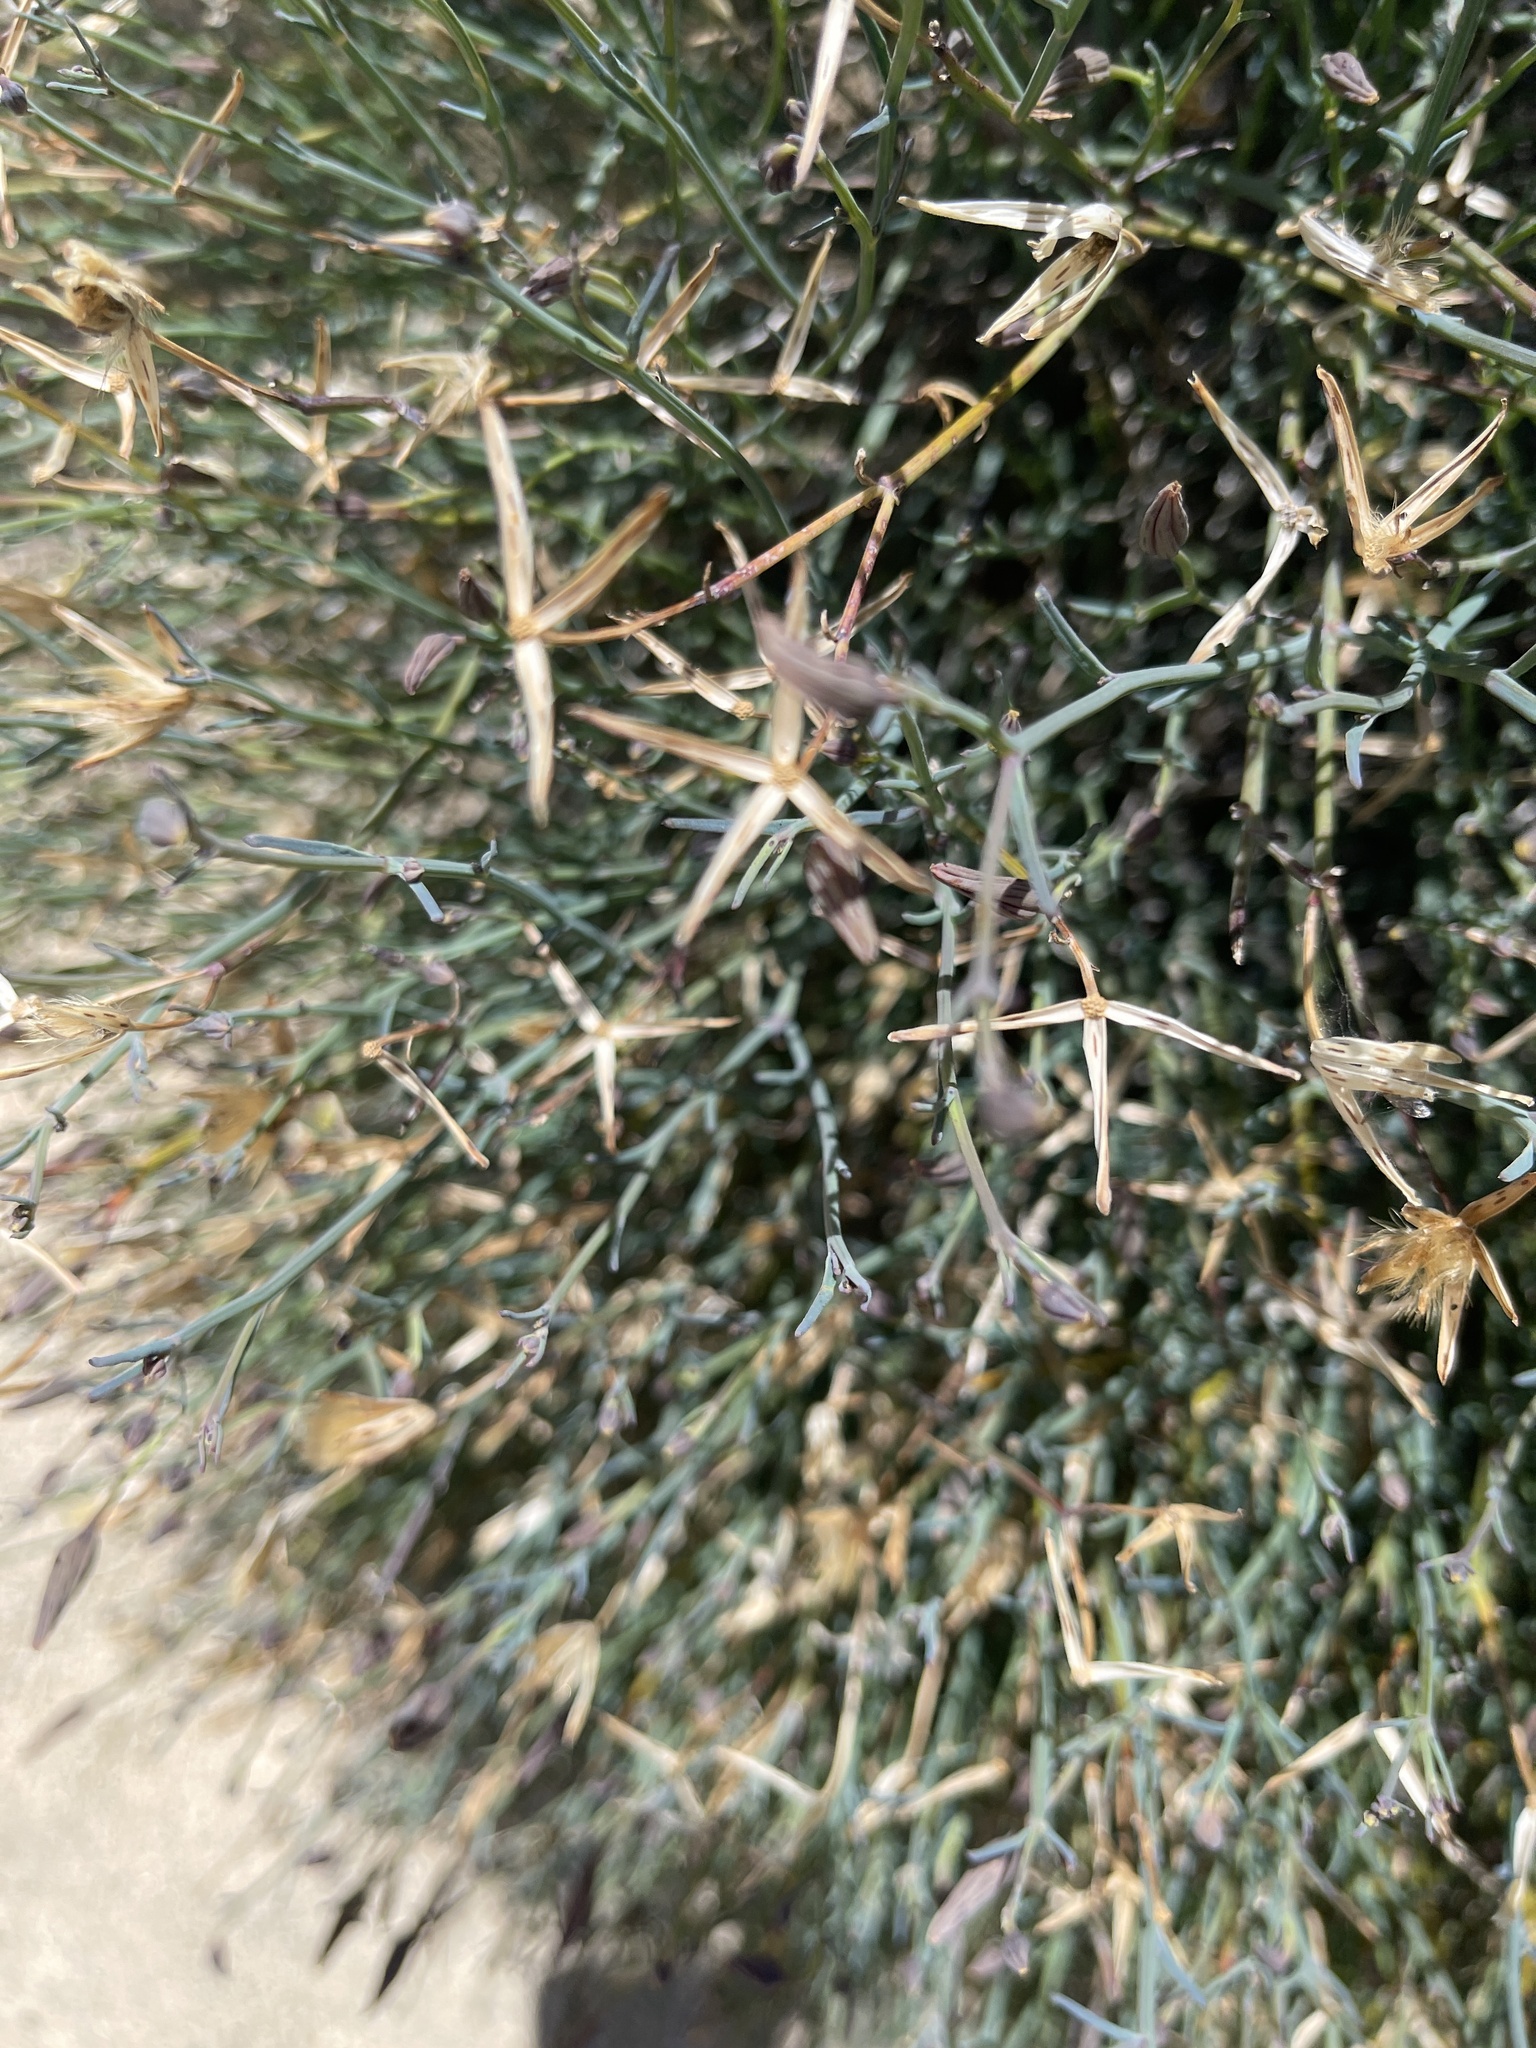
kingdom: Plantae
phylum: Tracheophyta
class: Magnoliopsida
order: Asterales
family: Asteraceae
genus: Porophyllum
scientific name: Porophyllum gracile
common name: Odora
